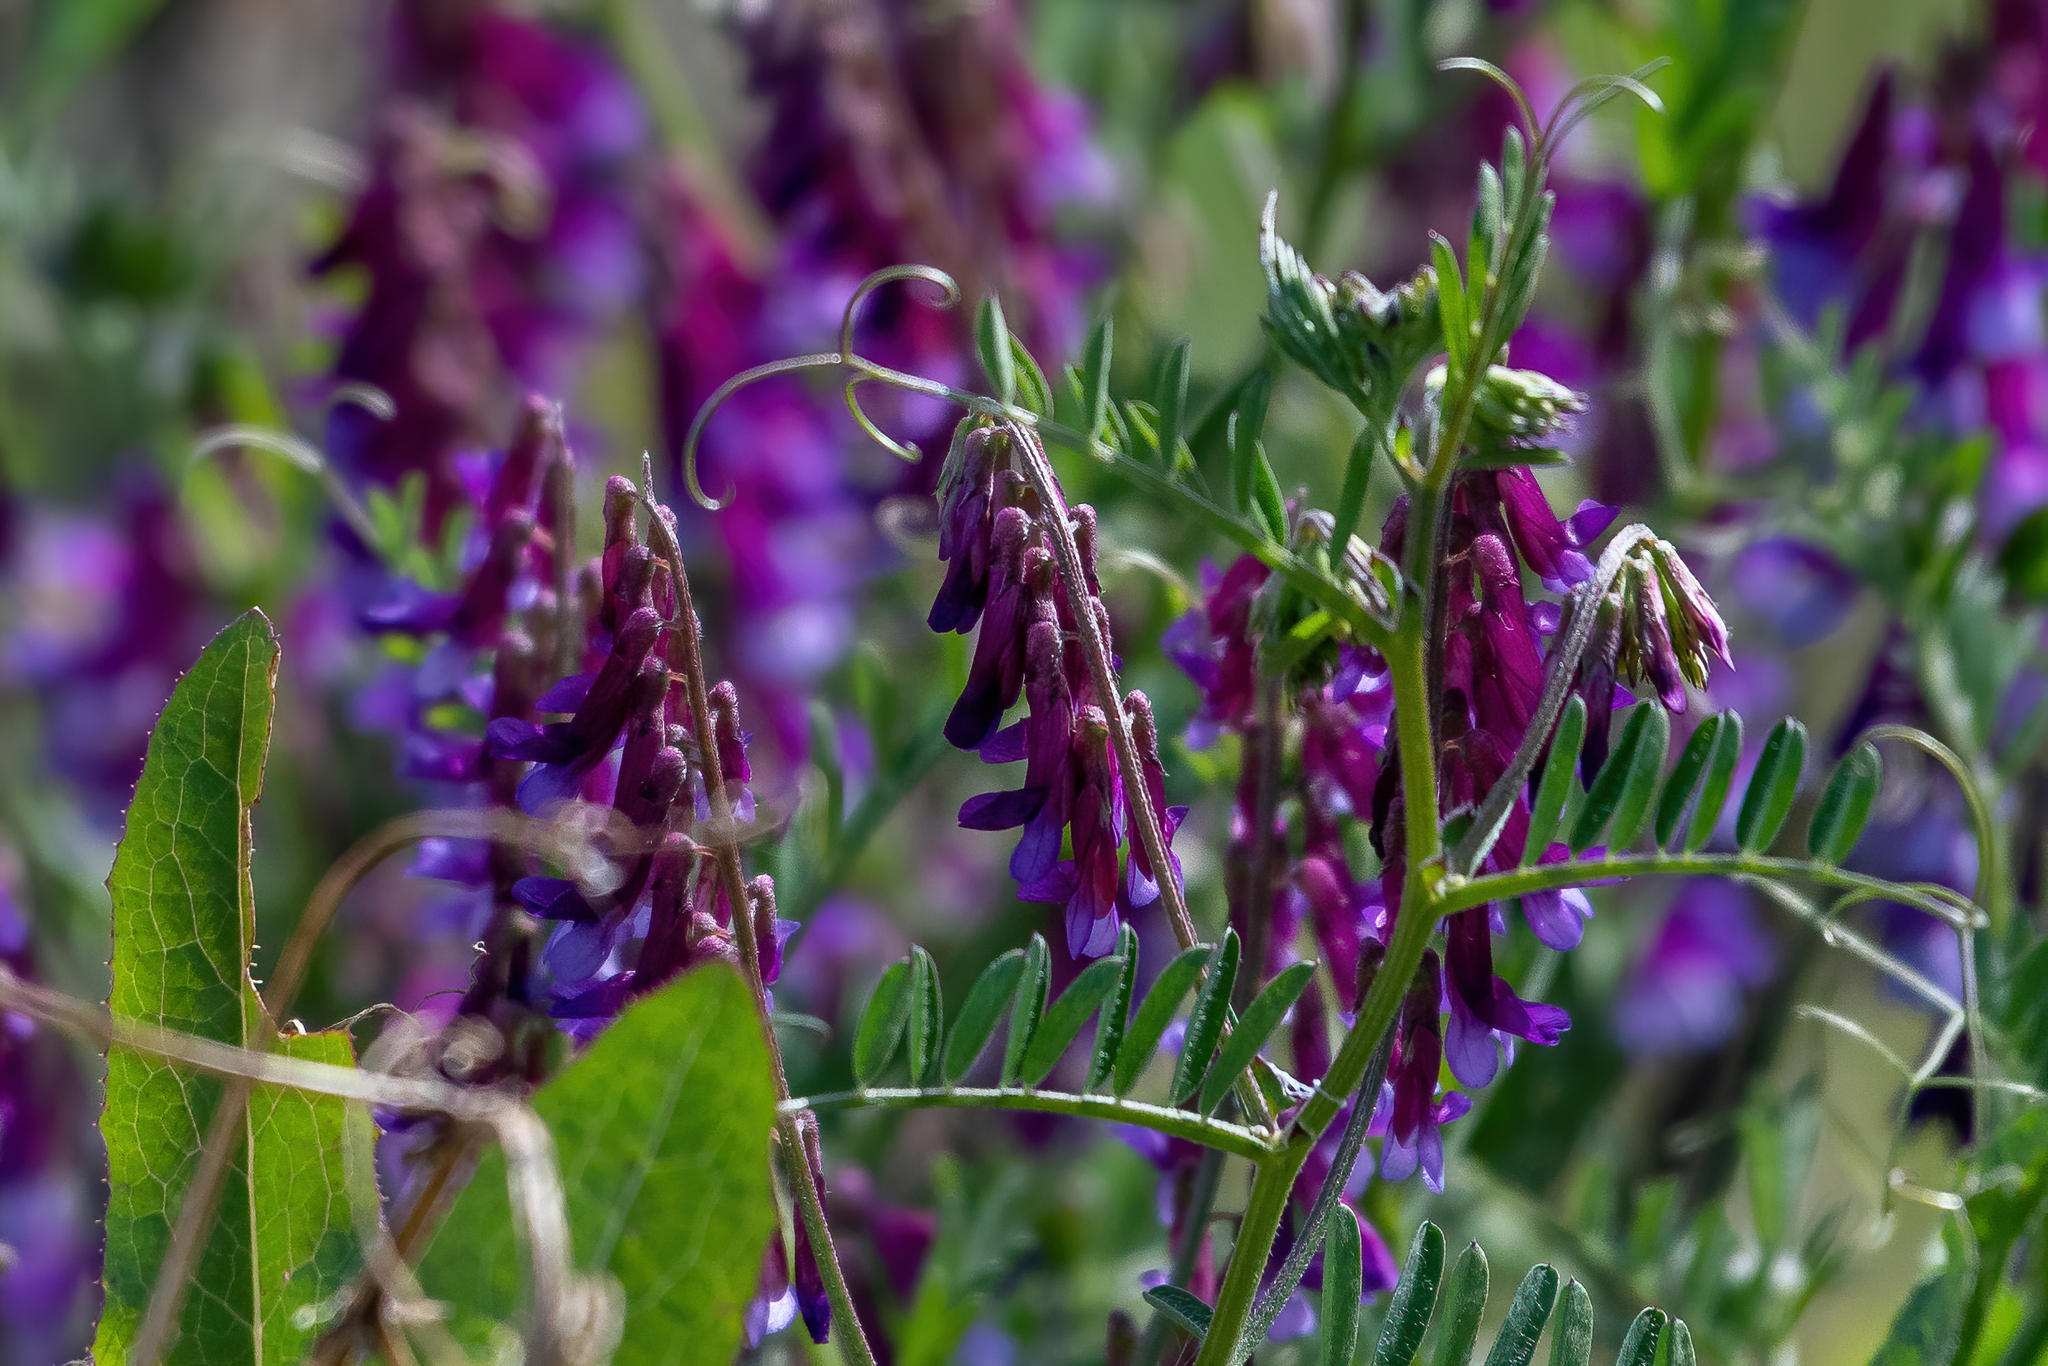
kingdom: Plantae
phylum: Tracheophyta
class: Magnoliopsida
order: Fabales
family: Fabaceae
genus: Vicia
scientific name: Vicia villosa
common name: Fodder vetch
